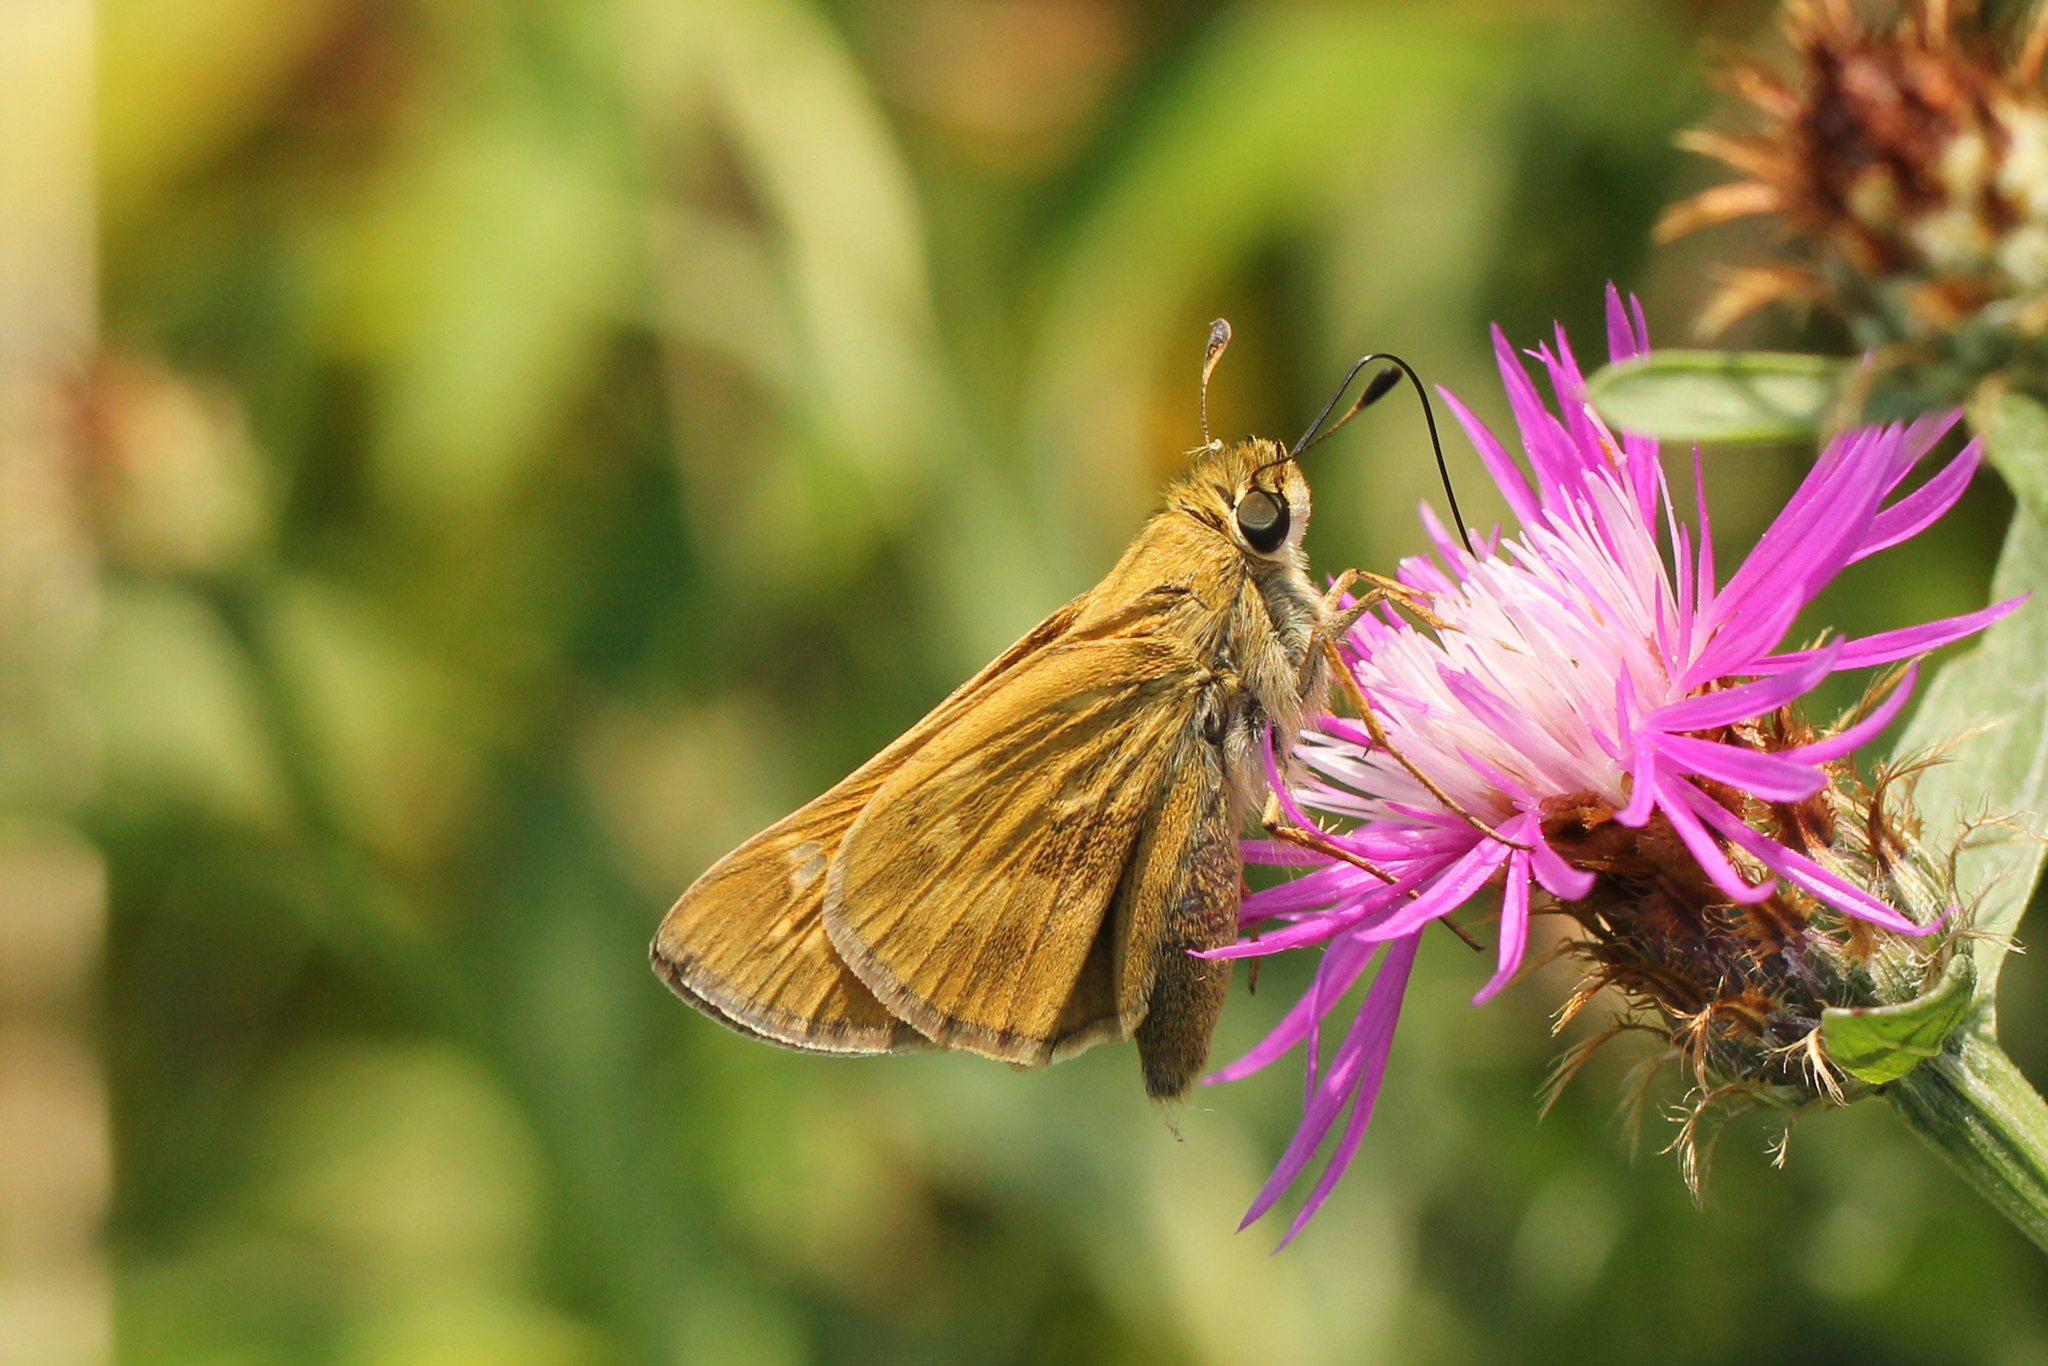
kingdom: Animalia
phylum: Arthropoda
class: Insecta
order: Lepidoptera
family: Hesperiidae
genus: Atalopedes
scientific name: Atalopedes
